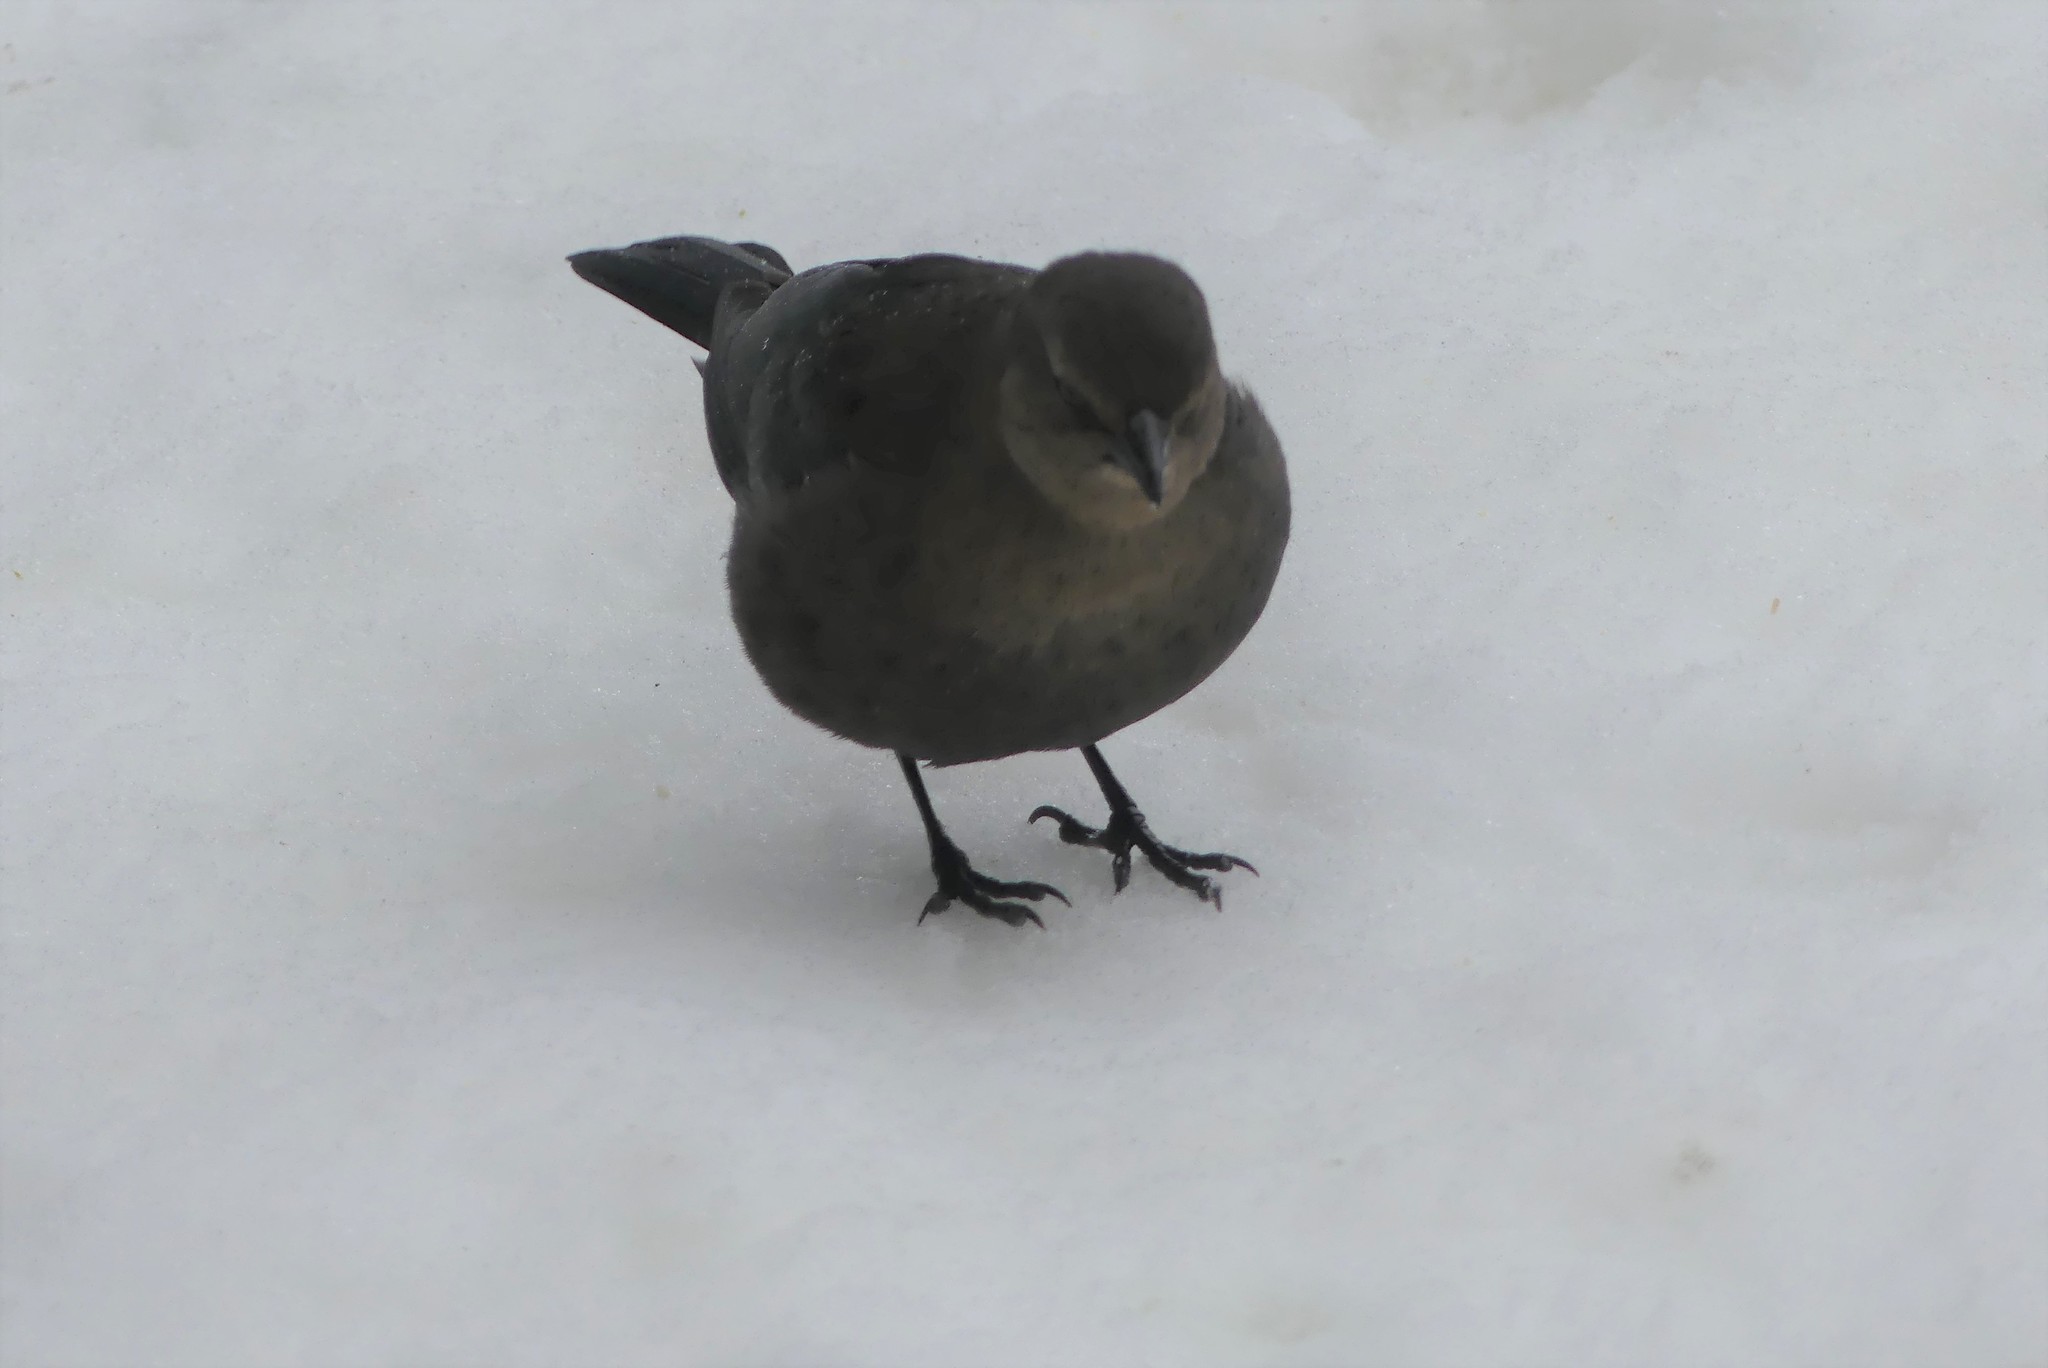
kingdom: Animalia
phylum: Chordata
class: Aves
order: Passeriformes
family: Icteridae
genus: Euphagus
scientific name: Euphagus cyanocephalus
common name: Brewer's blackbird
